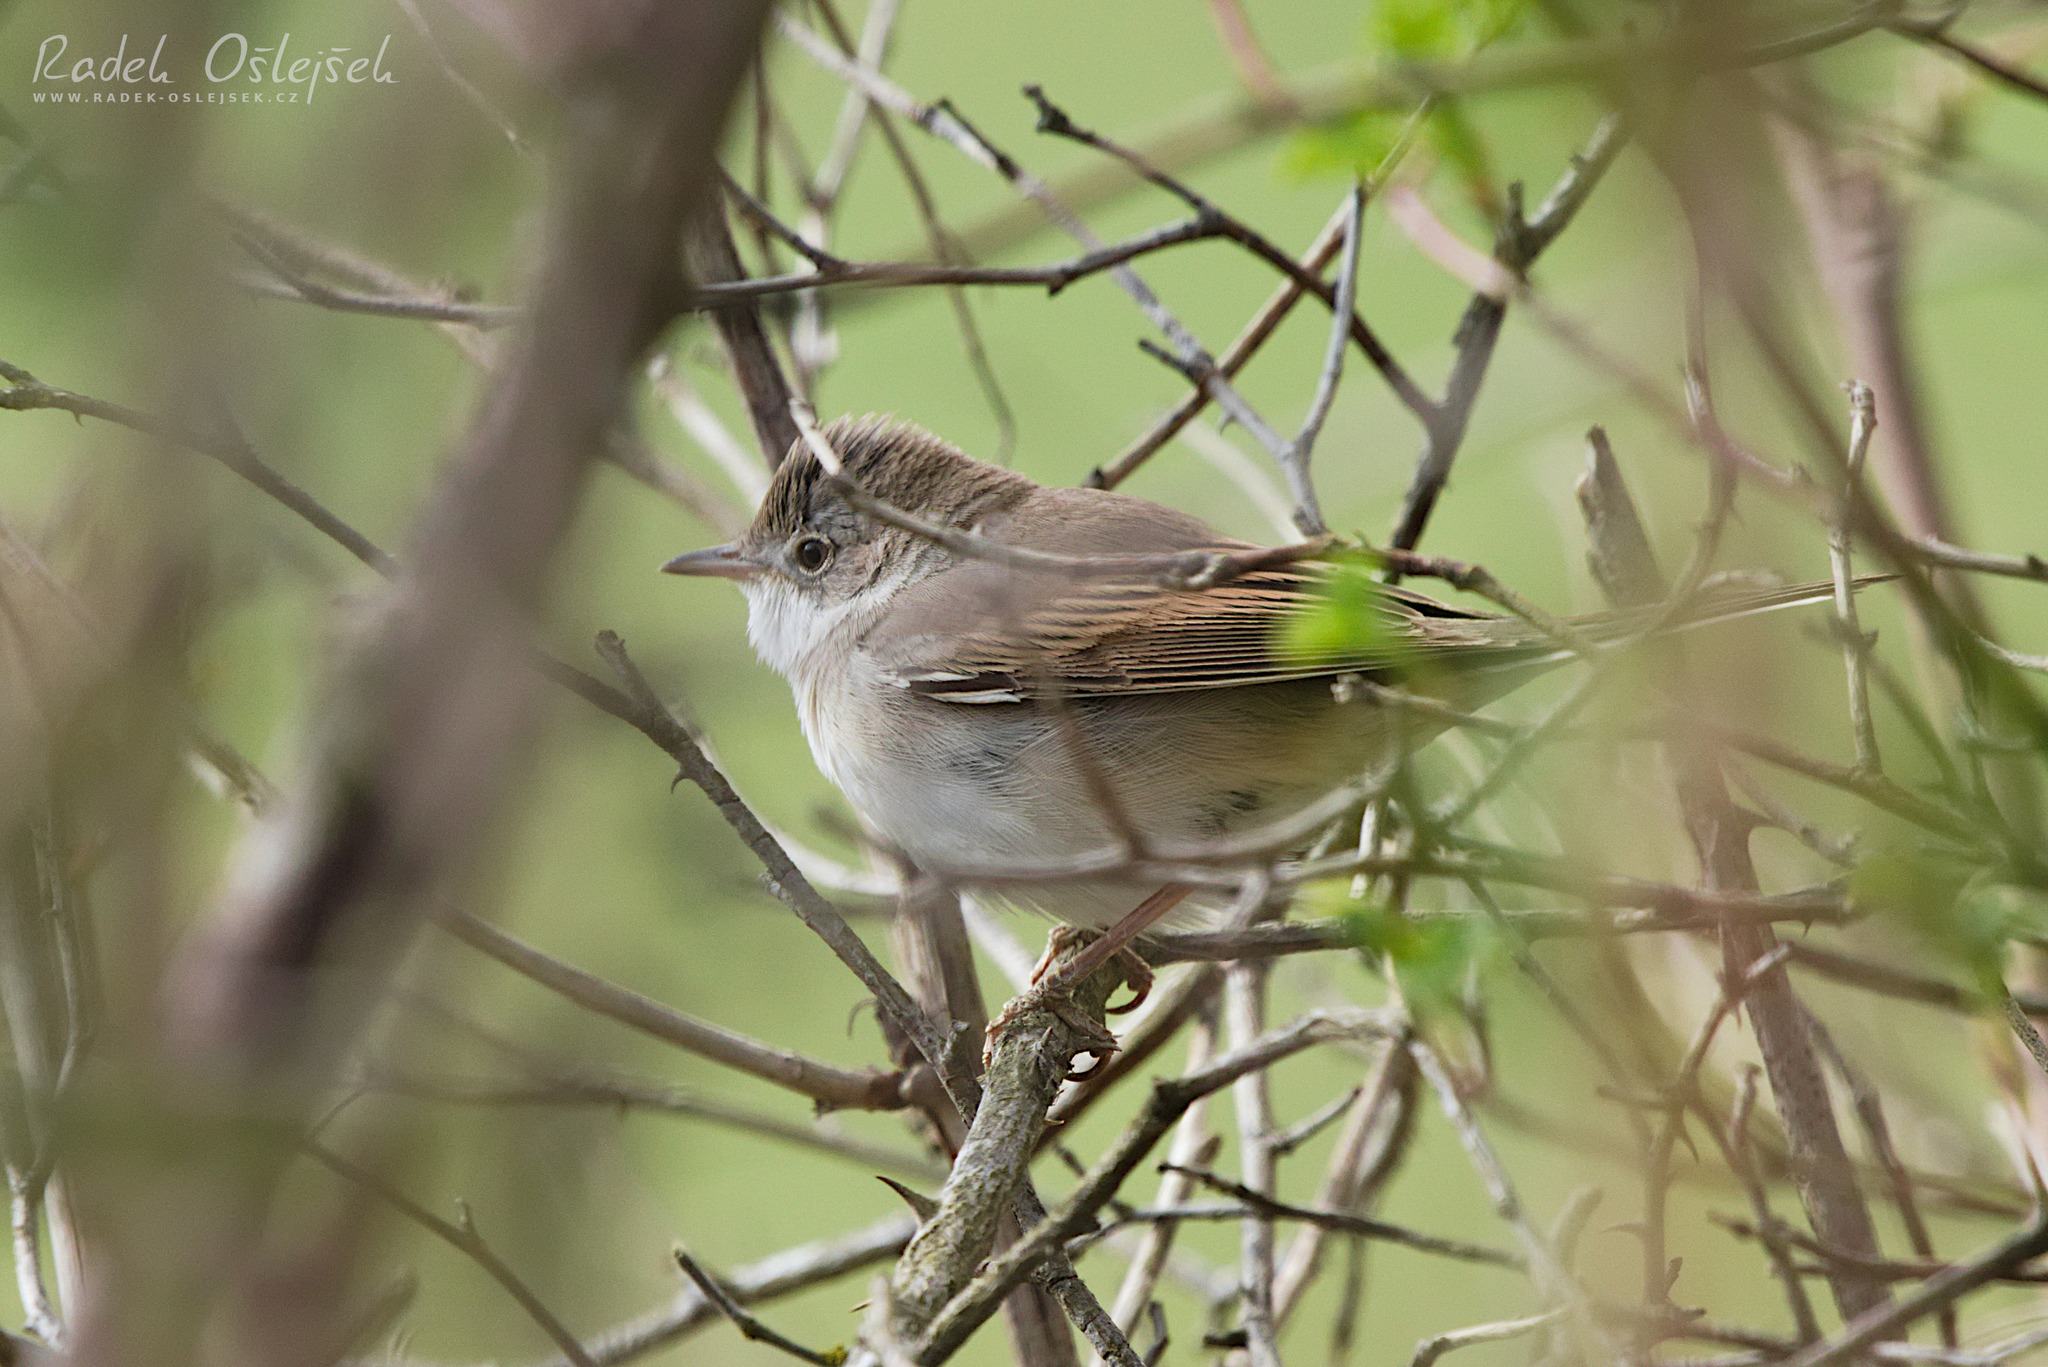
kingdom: Animalia
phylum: Chordata
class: Aves
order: Passeriformes
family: Sylviidae
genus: Sylvia
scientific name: Sylvia communis
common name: Common whitethroat
